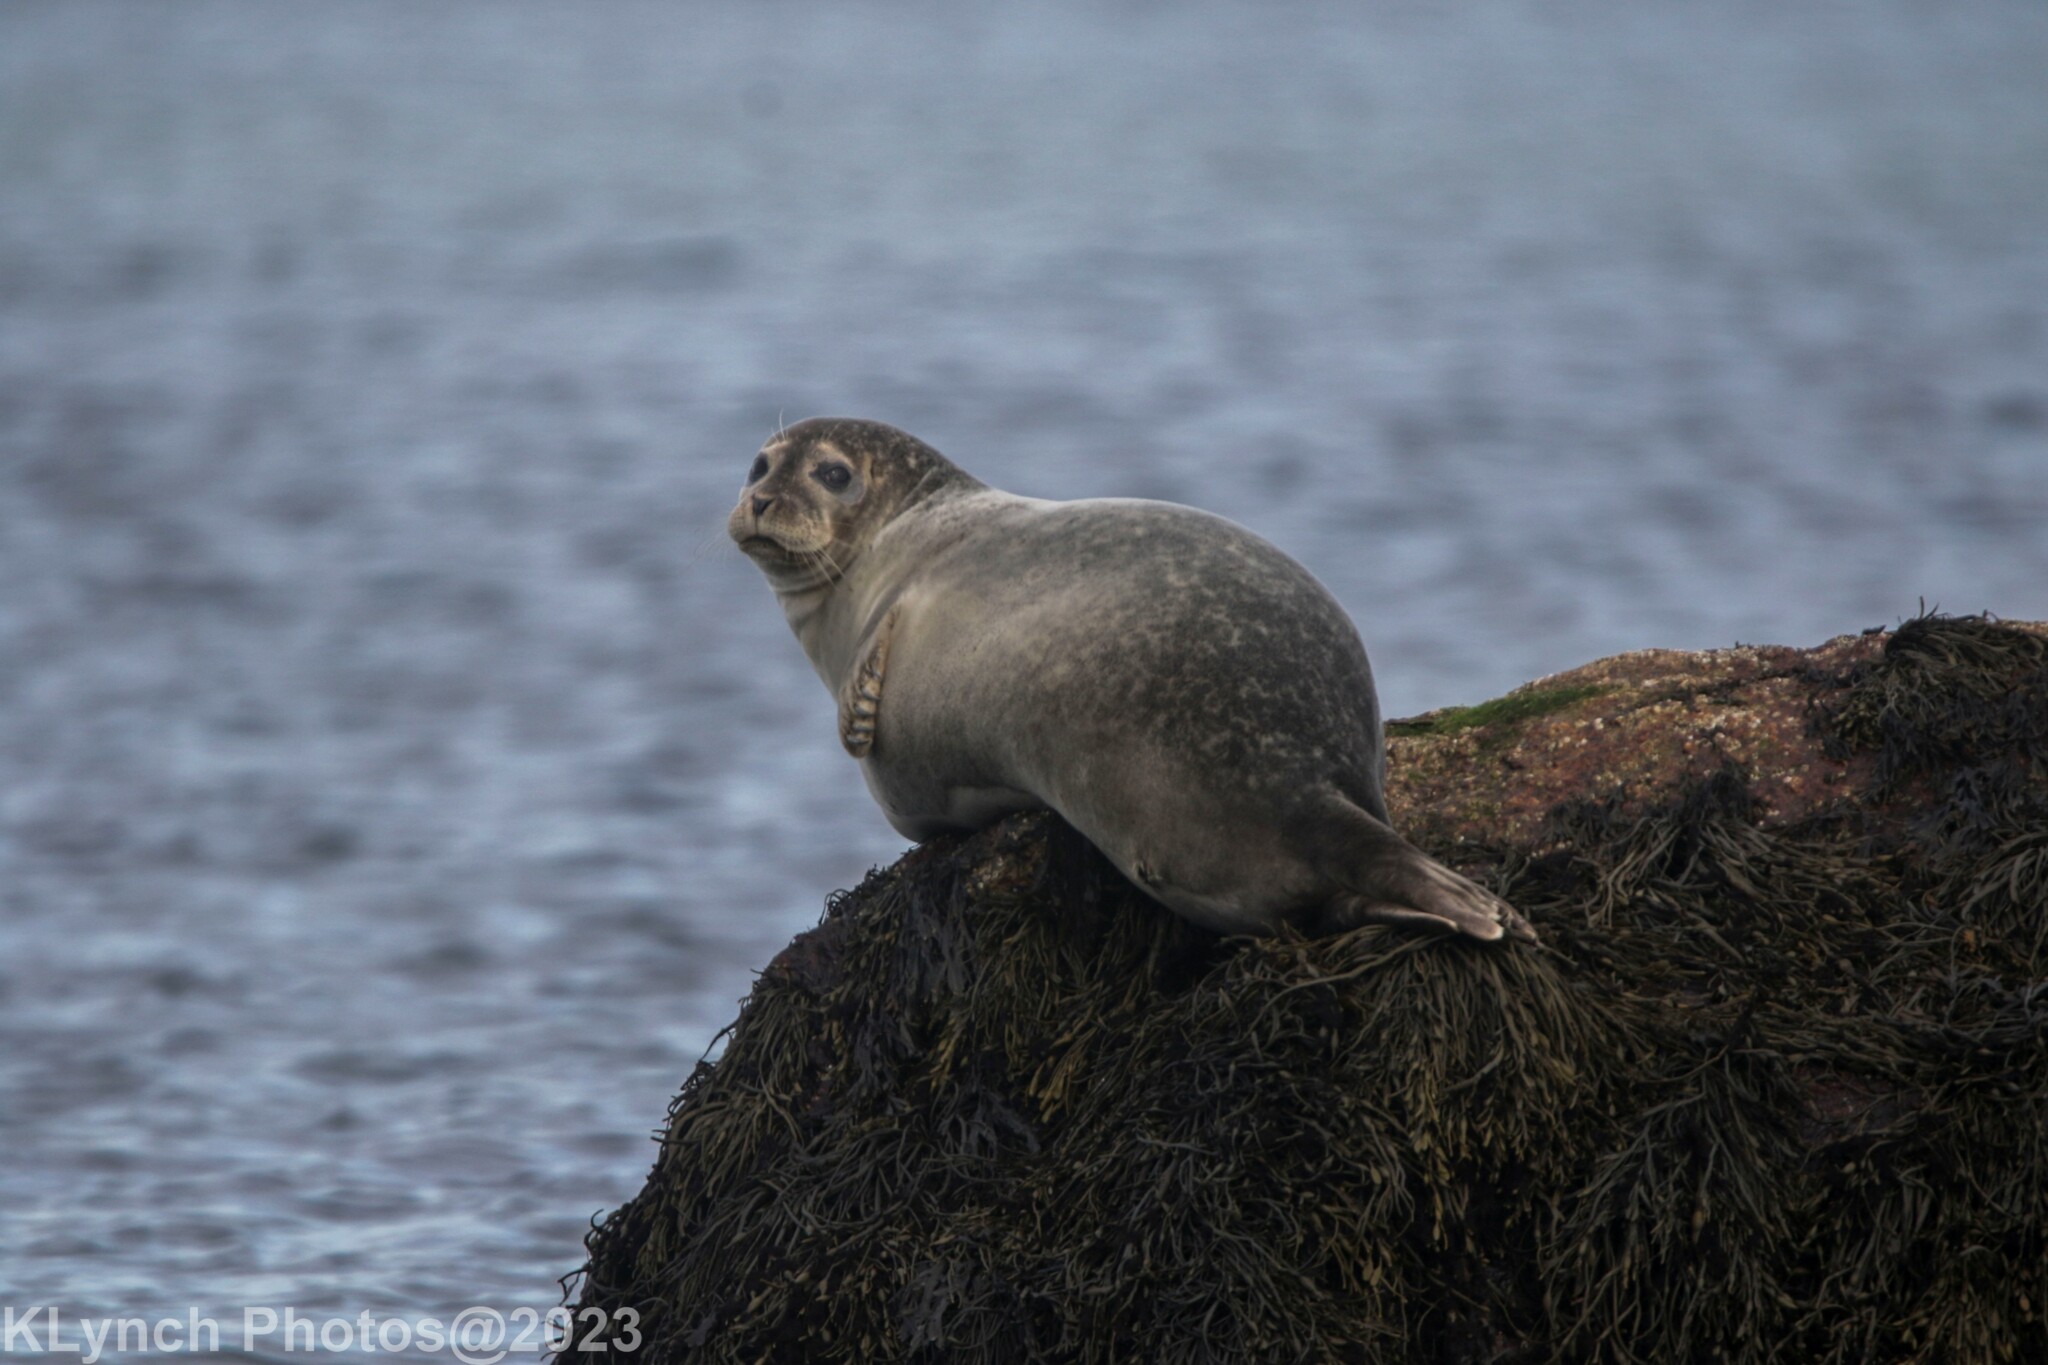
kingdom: Animalia
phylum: Chordata
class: Mammalia
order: Carnivora
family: Phocidae
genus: Phoca
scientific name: Phoca vitulina
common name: Harbor seal
